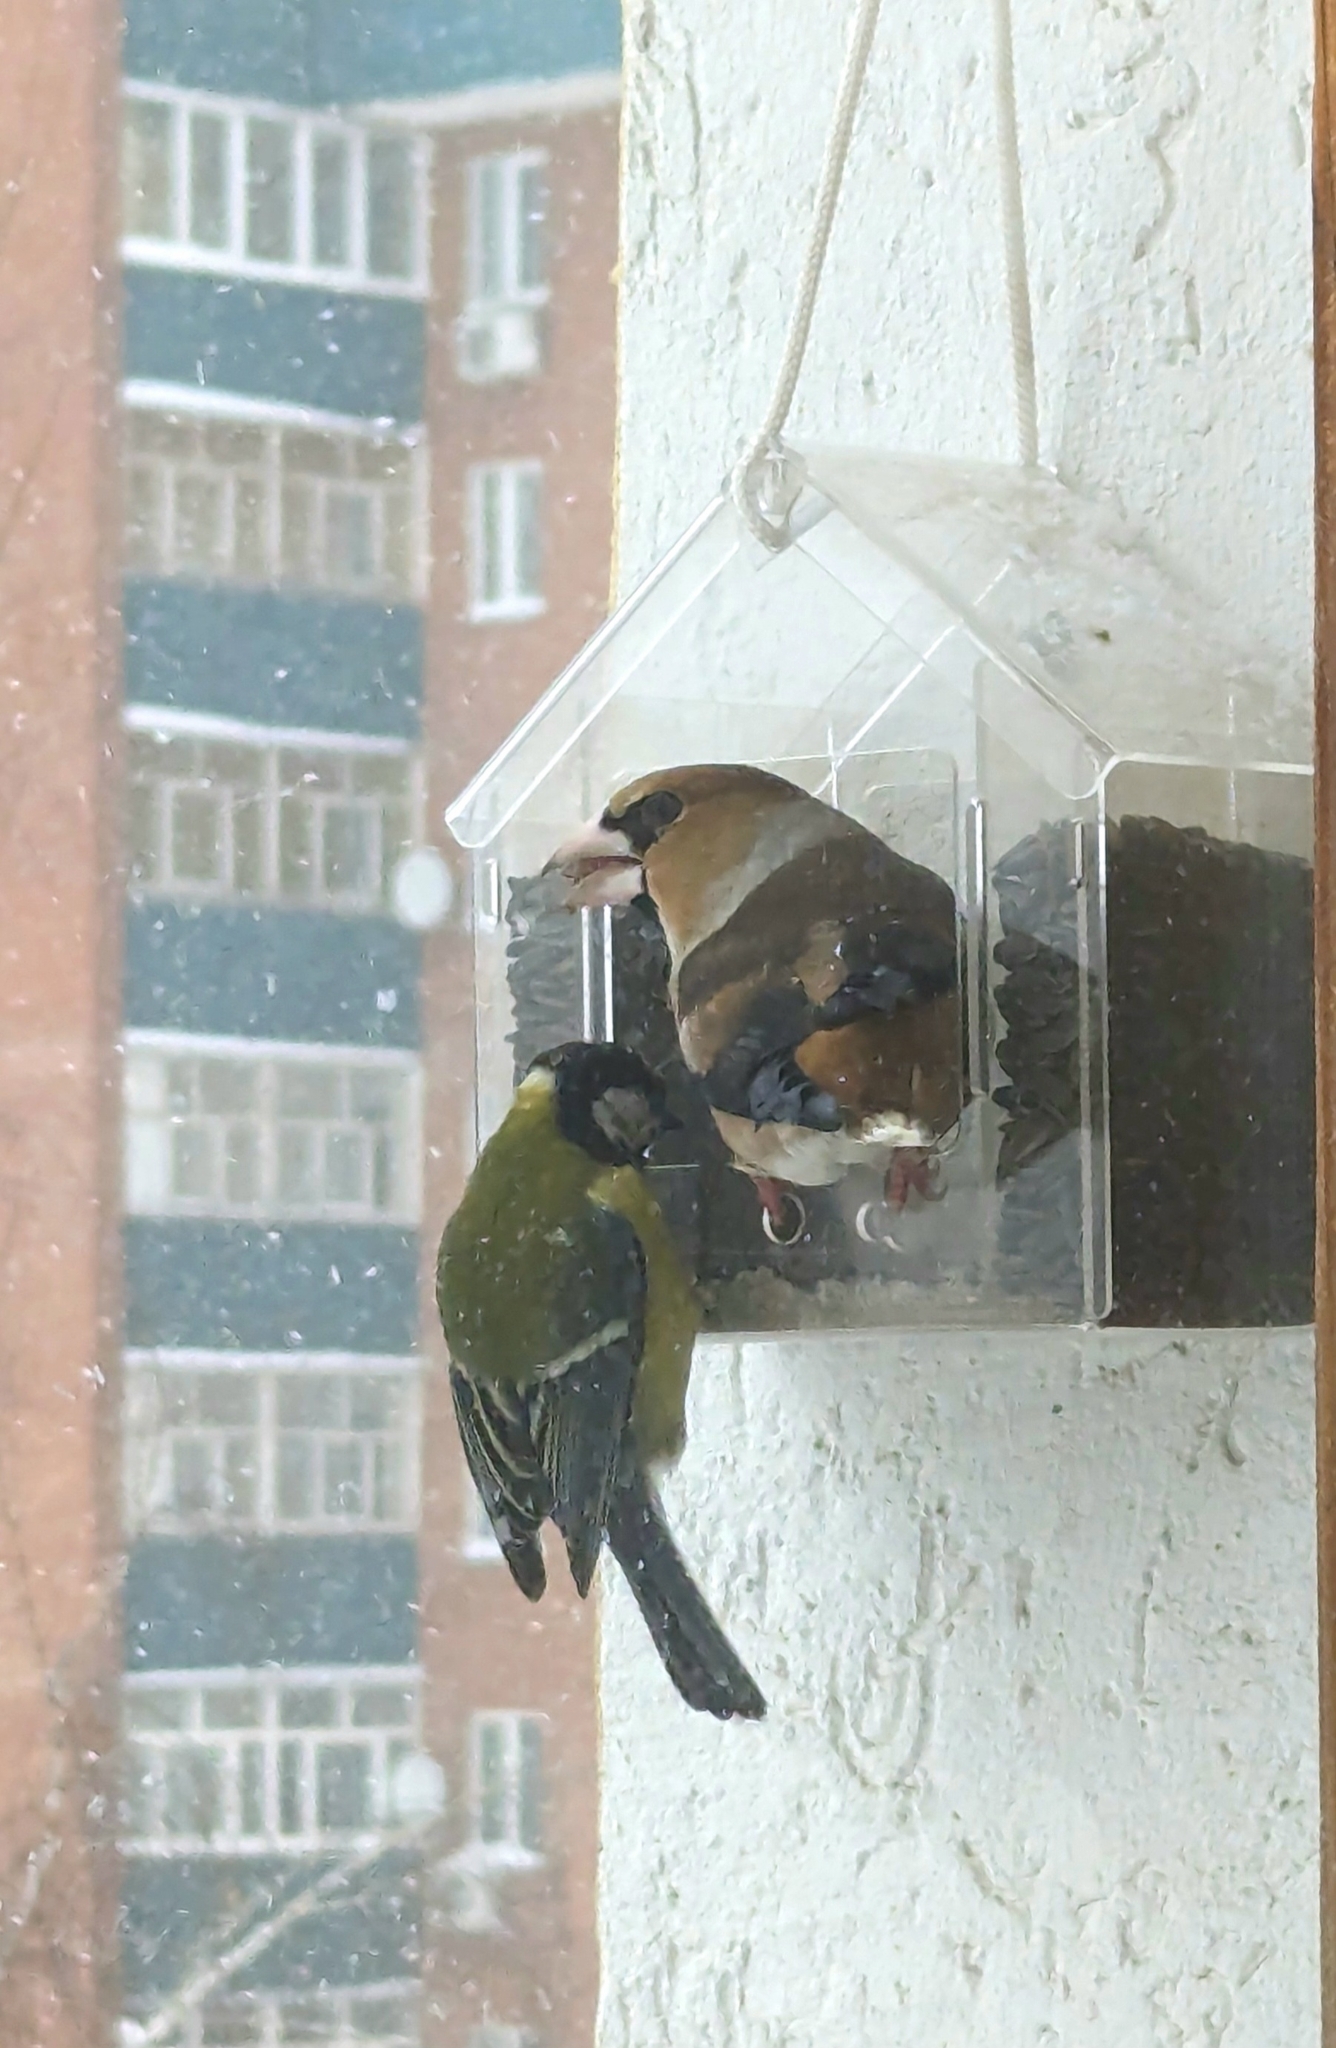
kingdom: Animalia
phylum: Chordata
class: Aves
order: Passeriformes
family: Fringillidae
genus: Coccothraustes
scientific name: Coccothraustes coccothraustes
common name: Hawfinch
